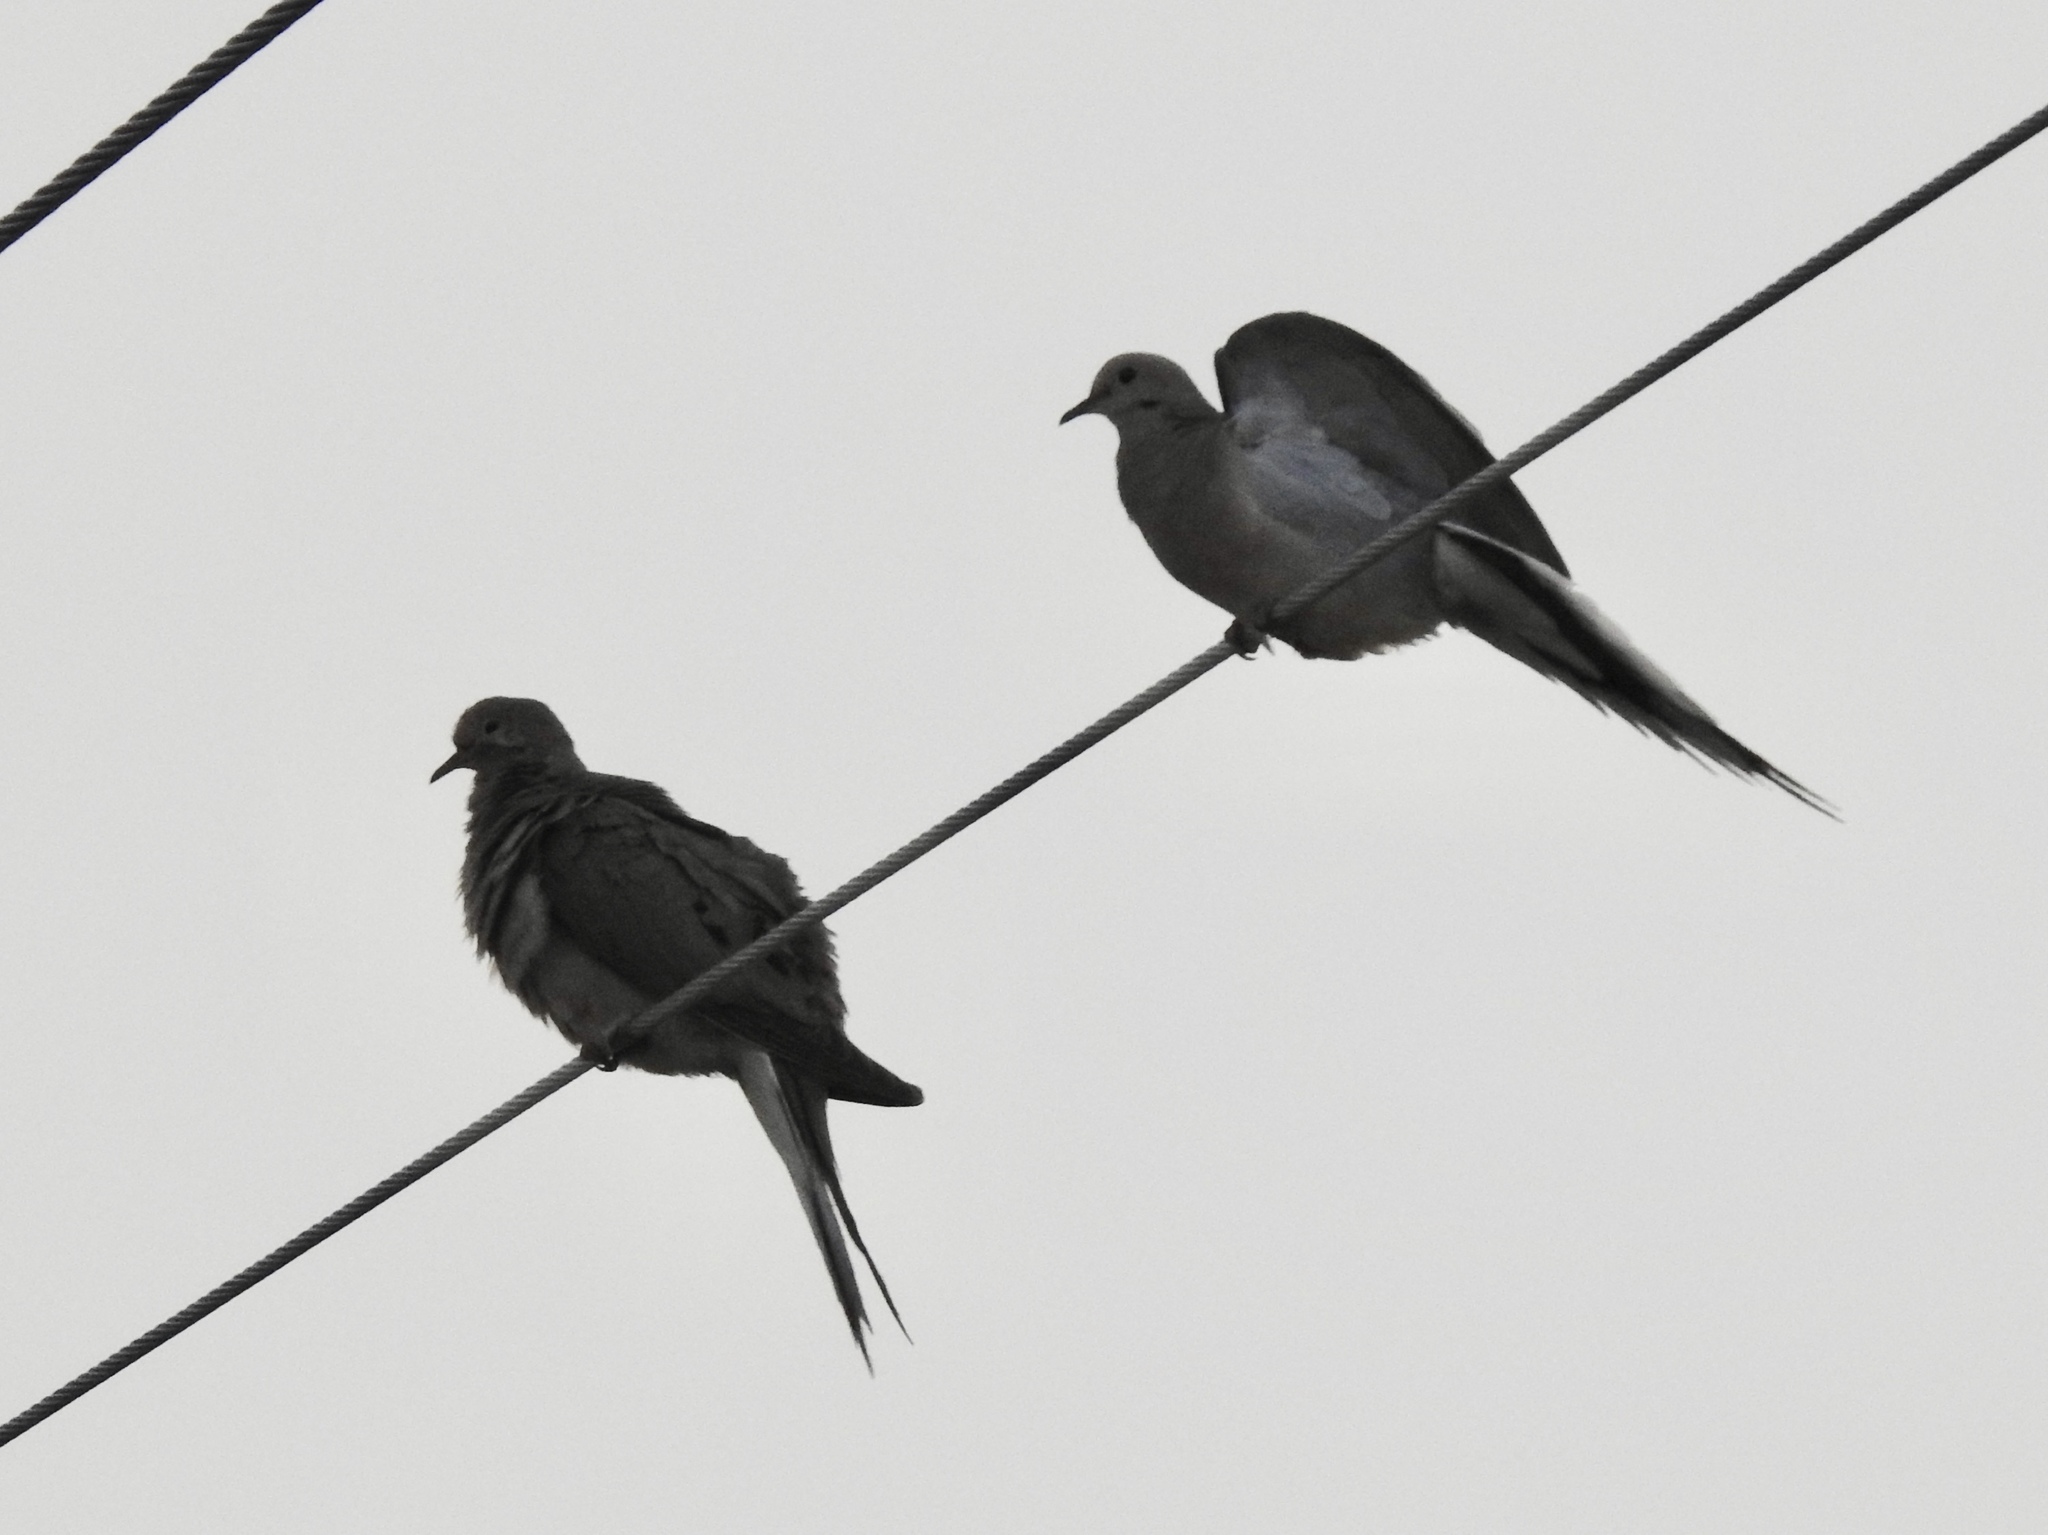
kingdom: Animalia
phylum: Chordata
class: Aves
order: Columbiformes
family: Columbidae
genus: Zenaida
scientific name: Zenaida macroura
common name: Mourning dove
